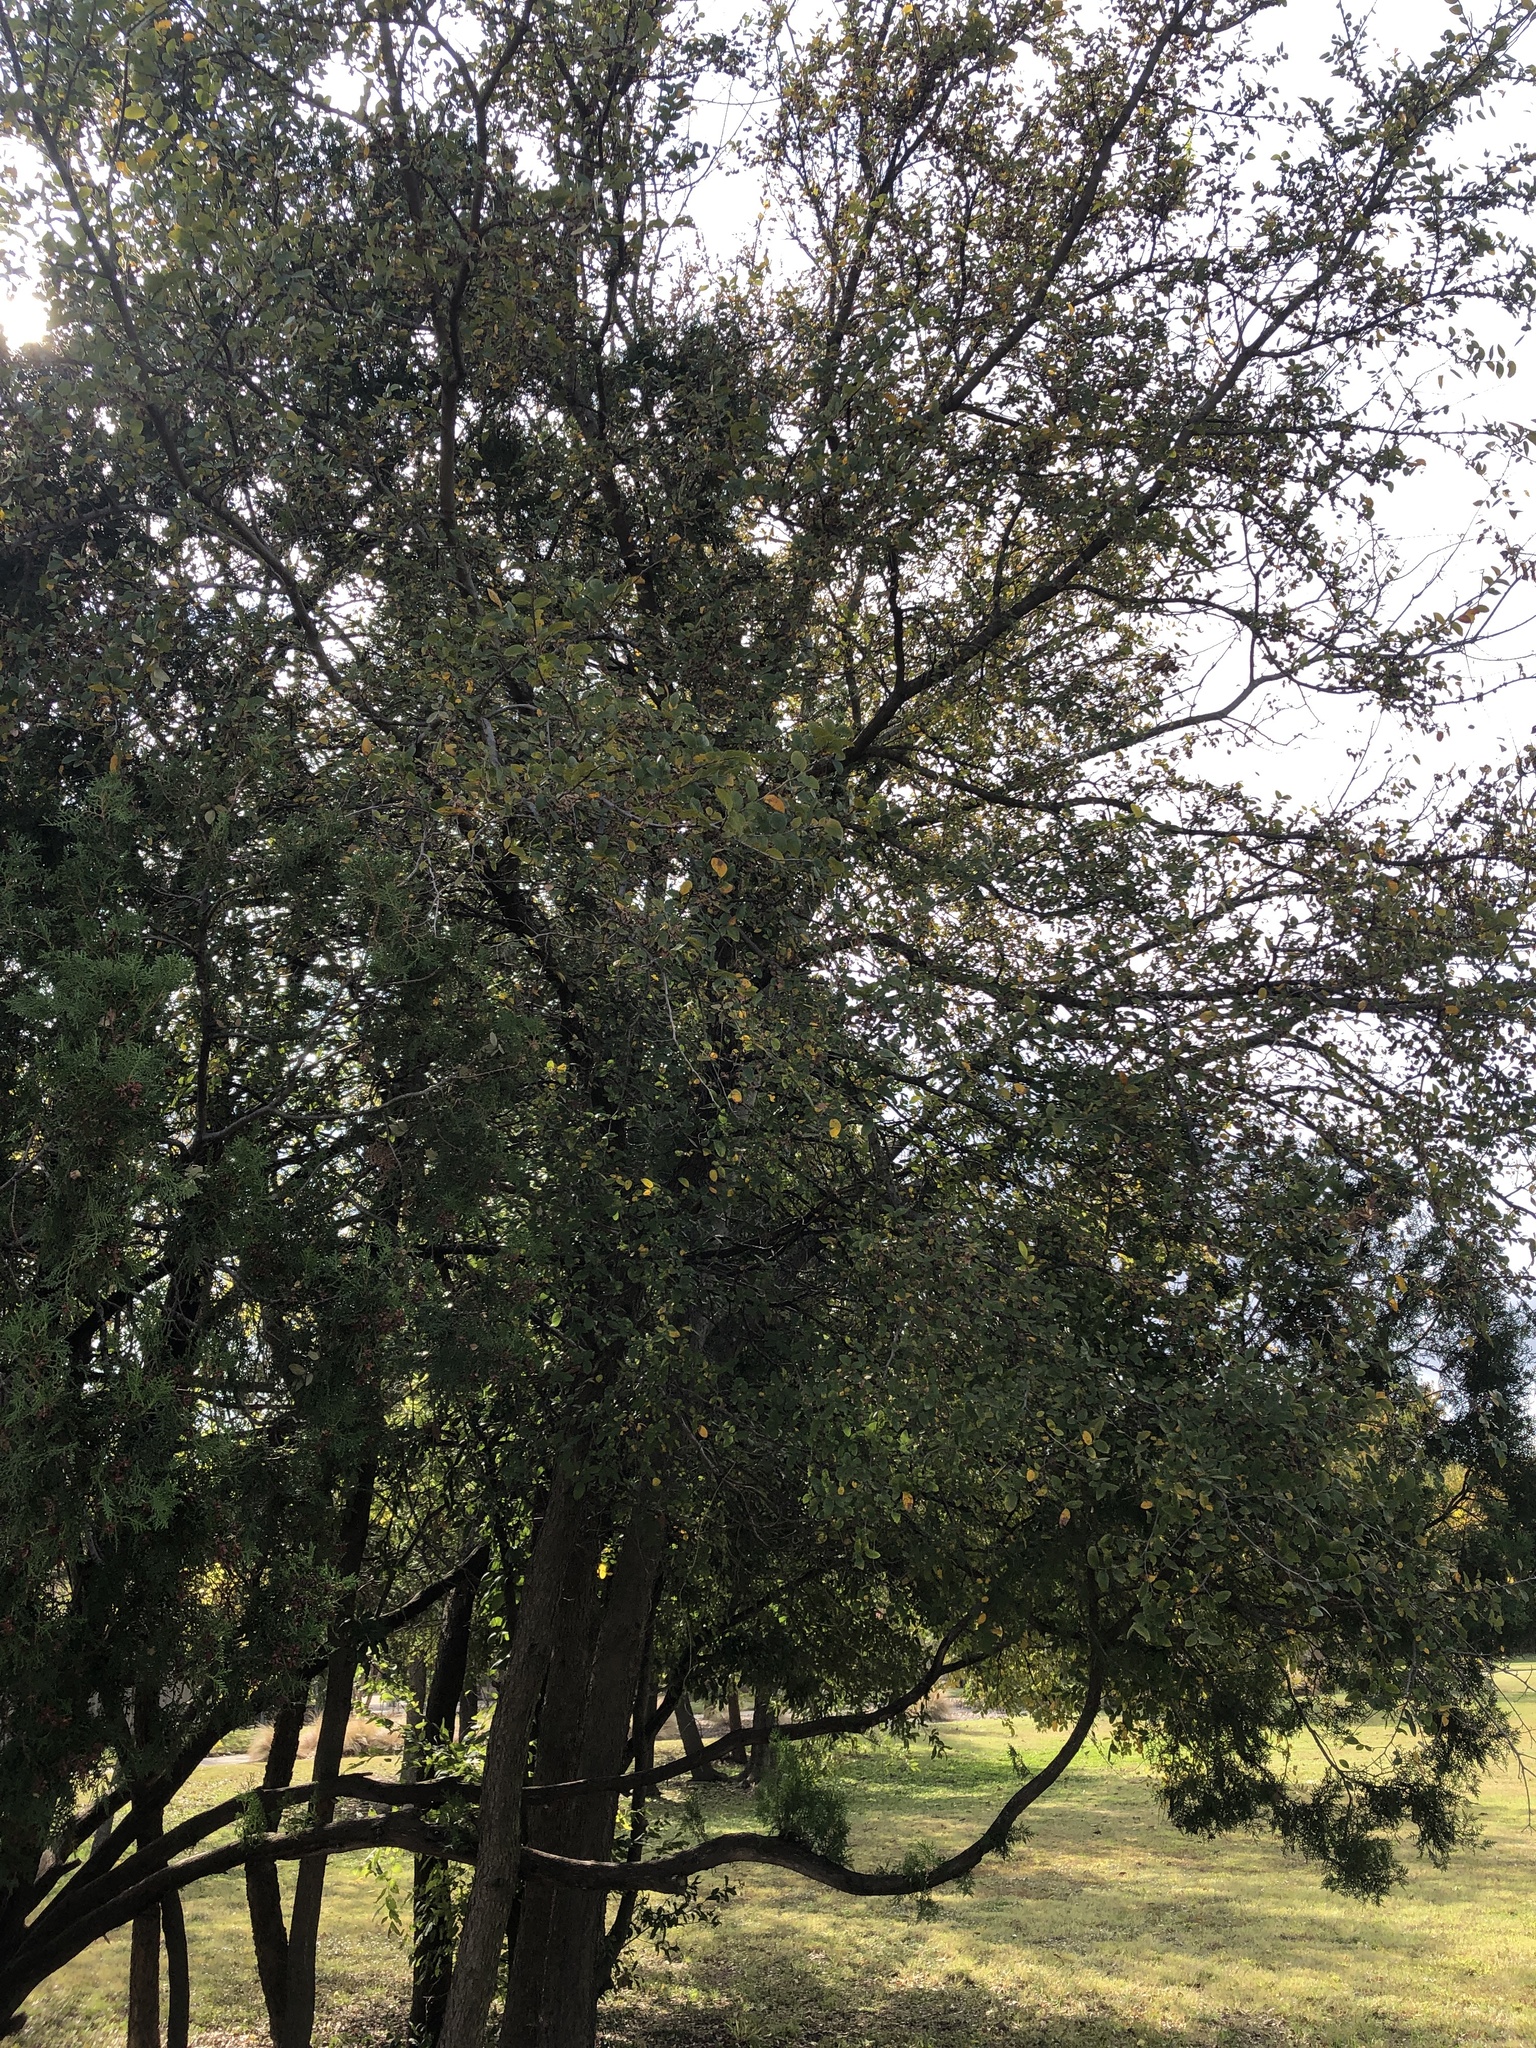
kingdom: Plantae
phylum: Tracheophyta
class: Magnoliopsida
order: Rosales
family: Ulmaceae
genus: Ulmus
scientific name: Ulmus crassifolia
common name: Basket elm
